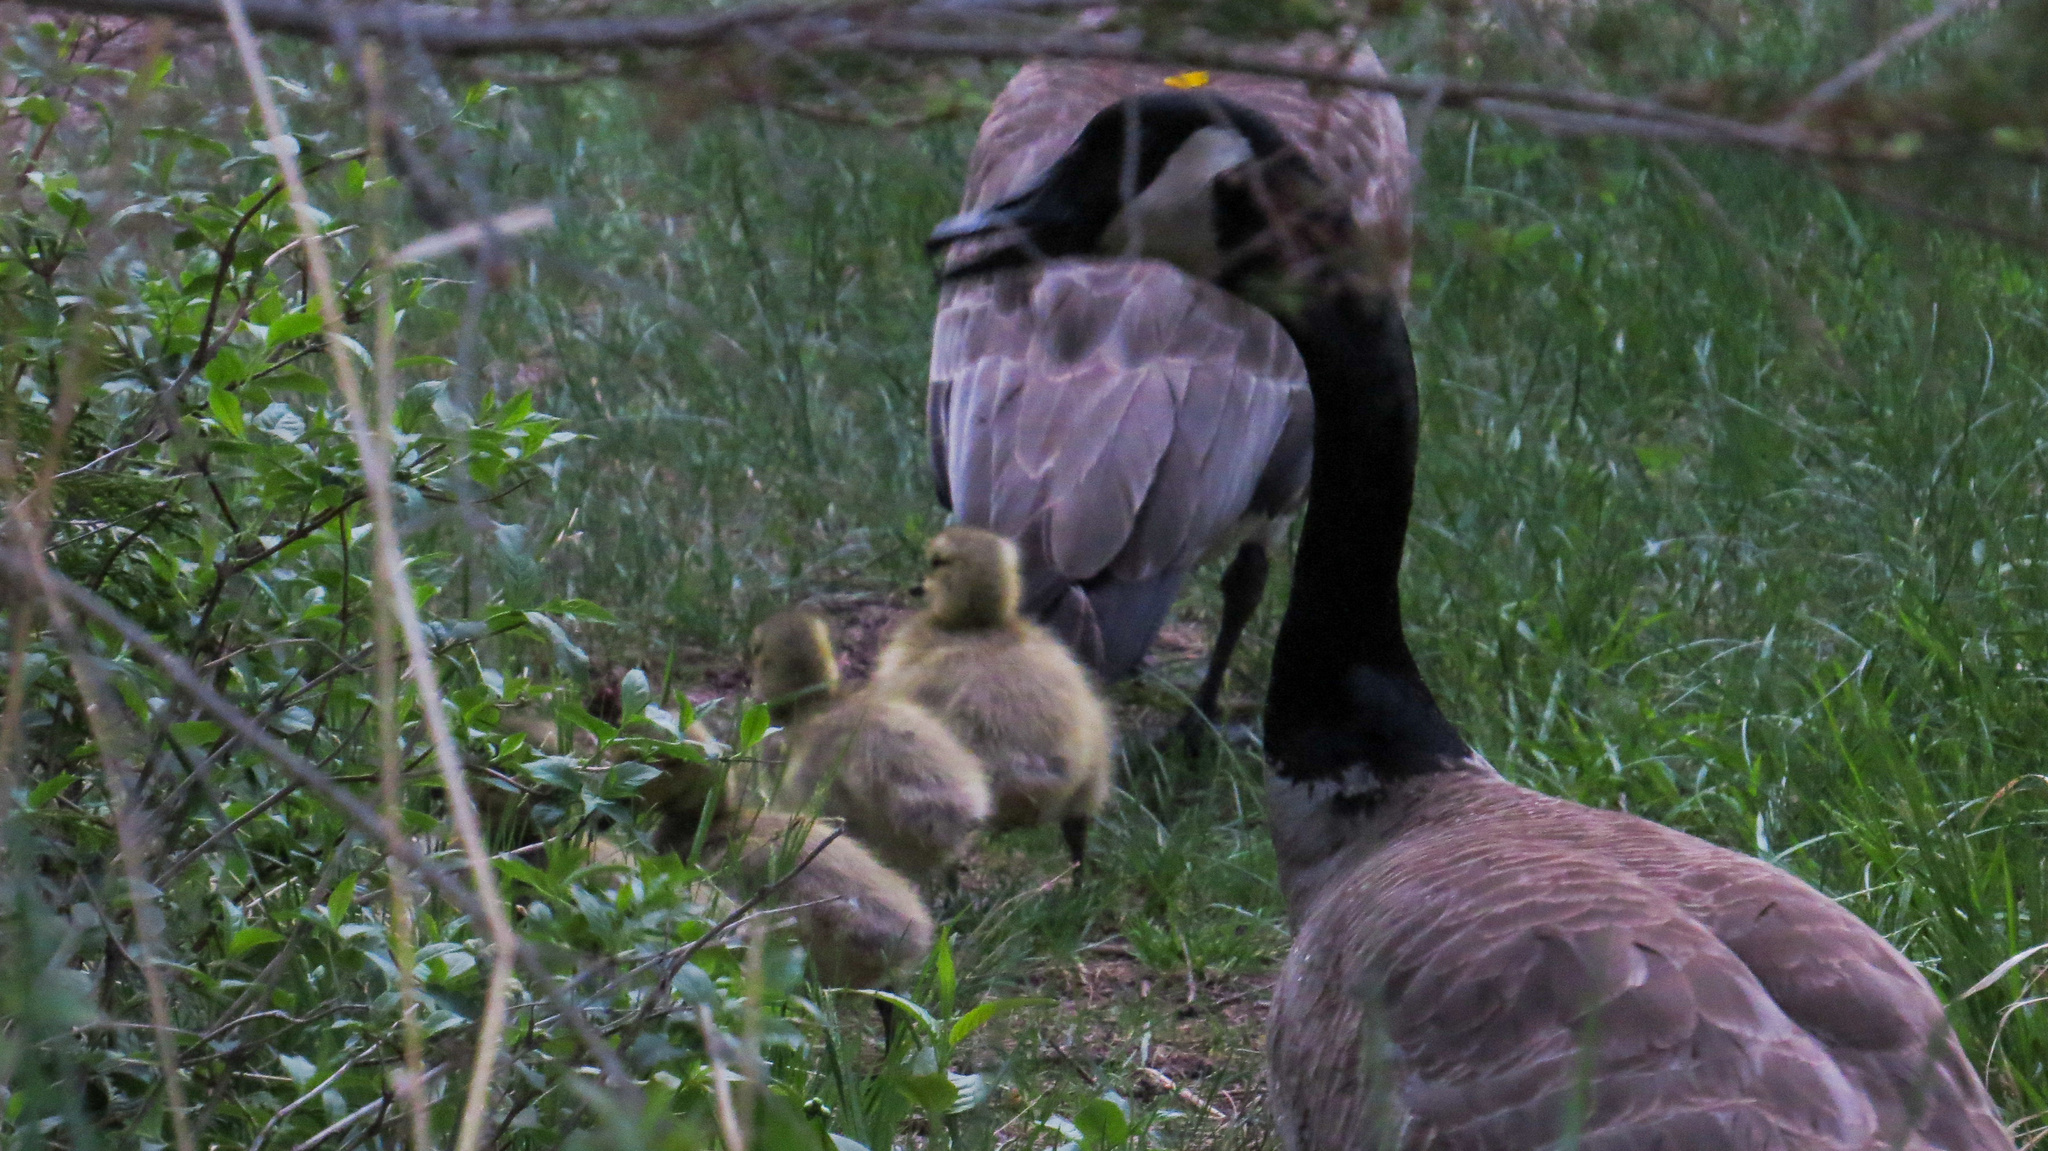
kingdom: Animalia
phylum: Chordata
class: Aves
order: Anseriformes
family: Anatidae
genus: Branta
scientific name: Branta canadensis
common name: Canada goose
